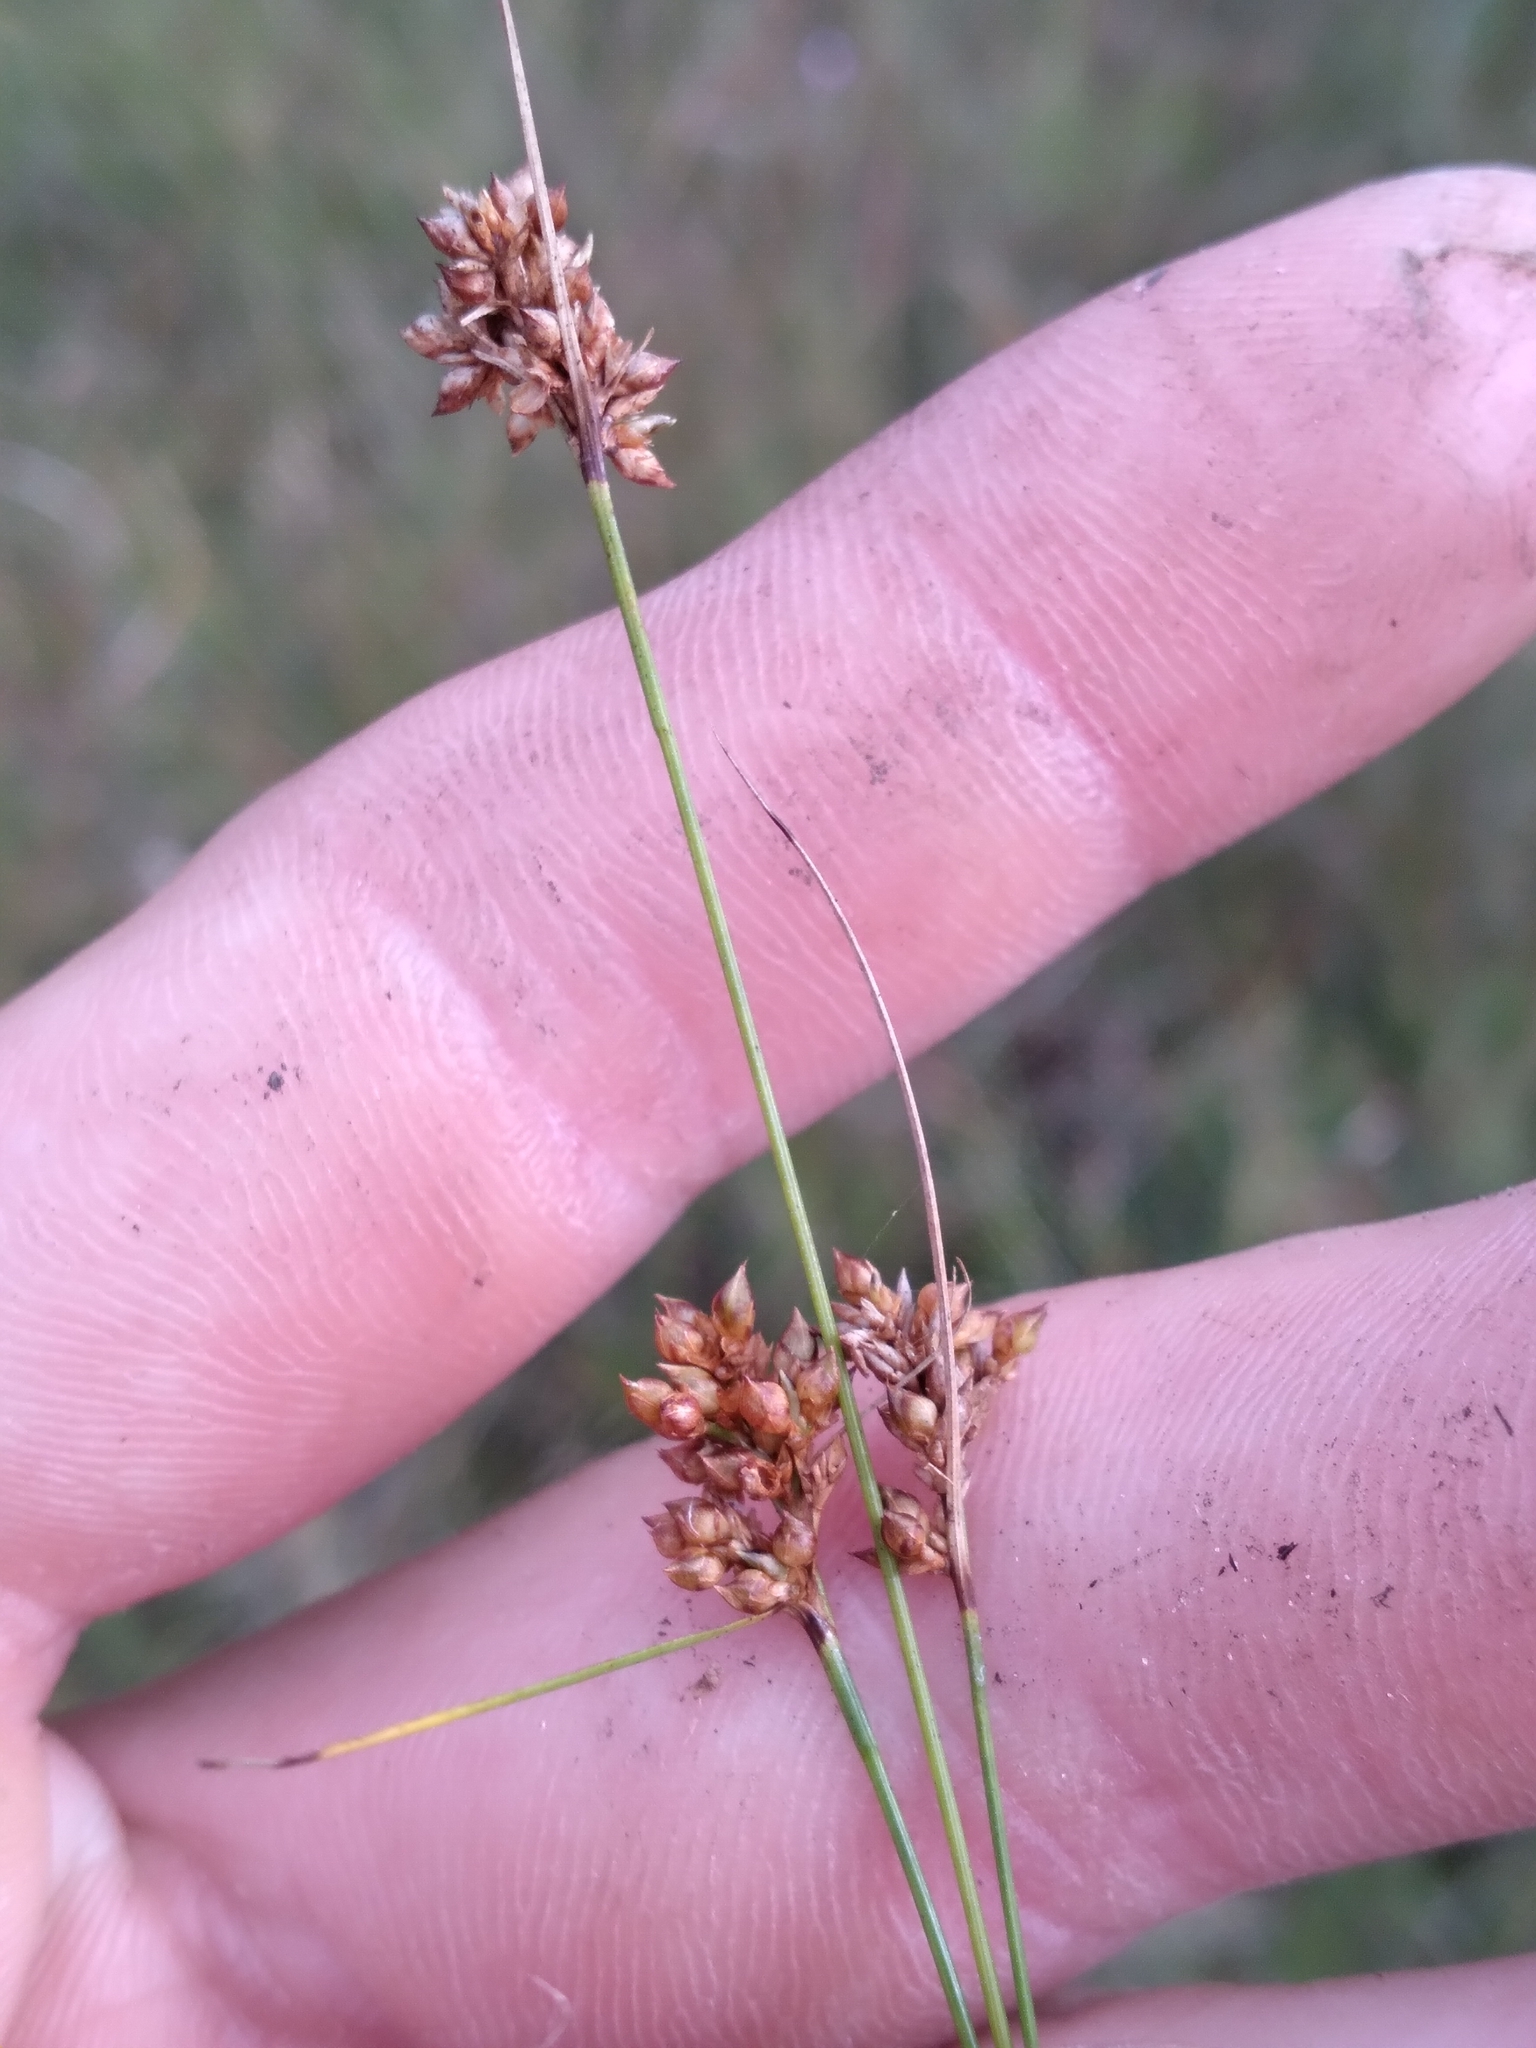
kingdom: Plantae
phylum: Tracheophyta
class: Liliopsida
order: Poales
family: Cyperaceae
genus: Rhynchospora
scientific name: Rhynchospora marliniana
